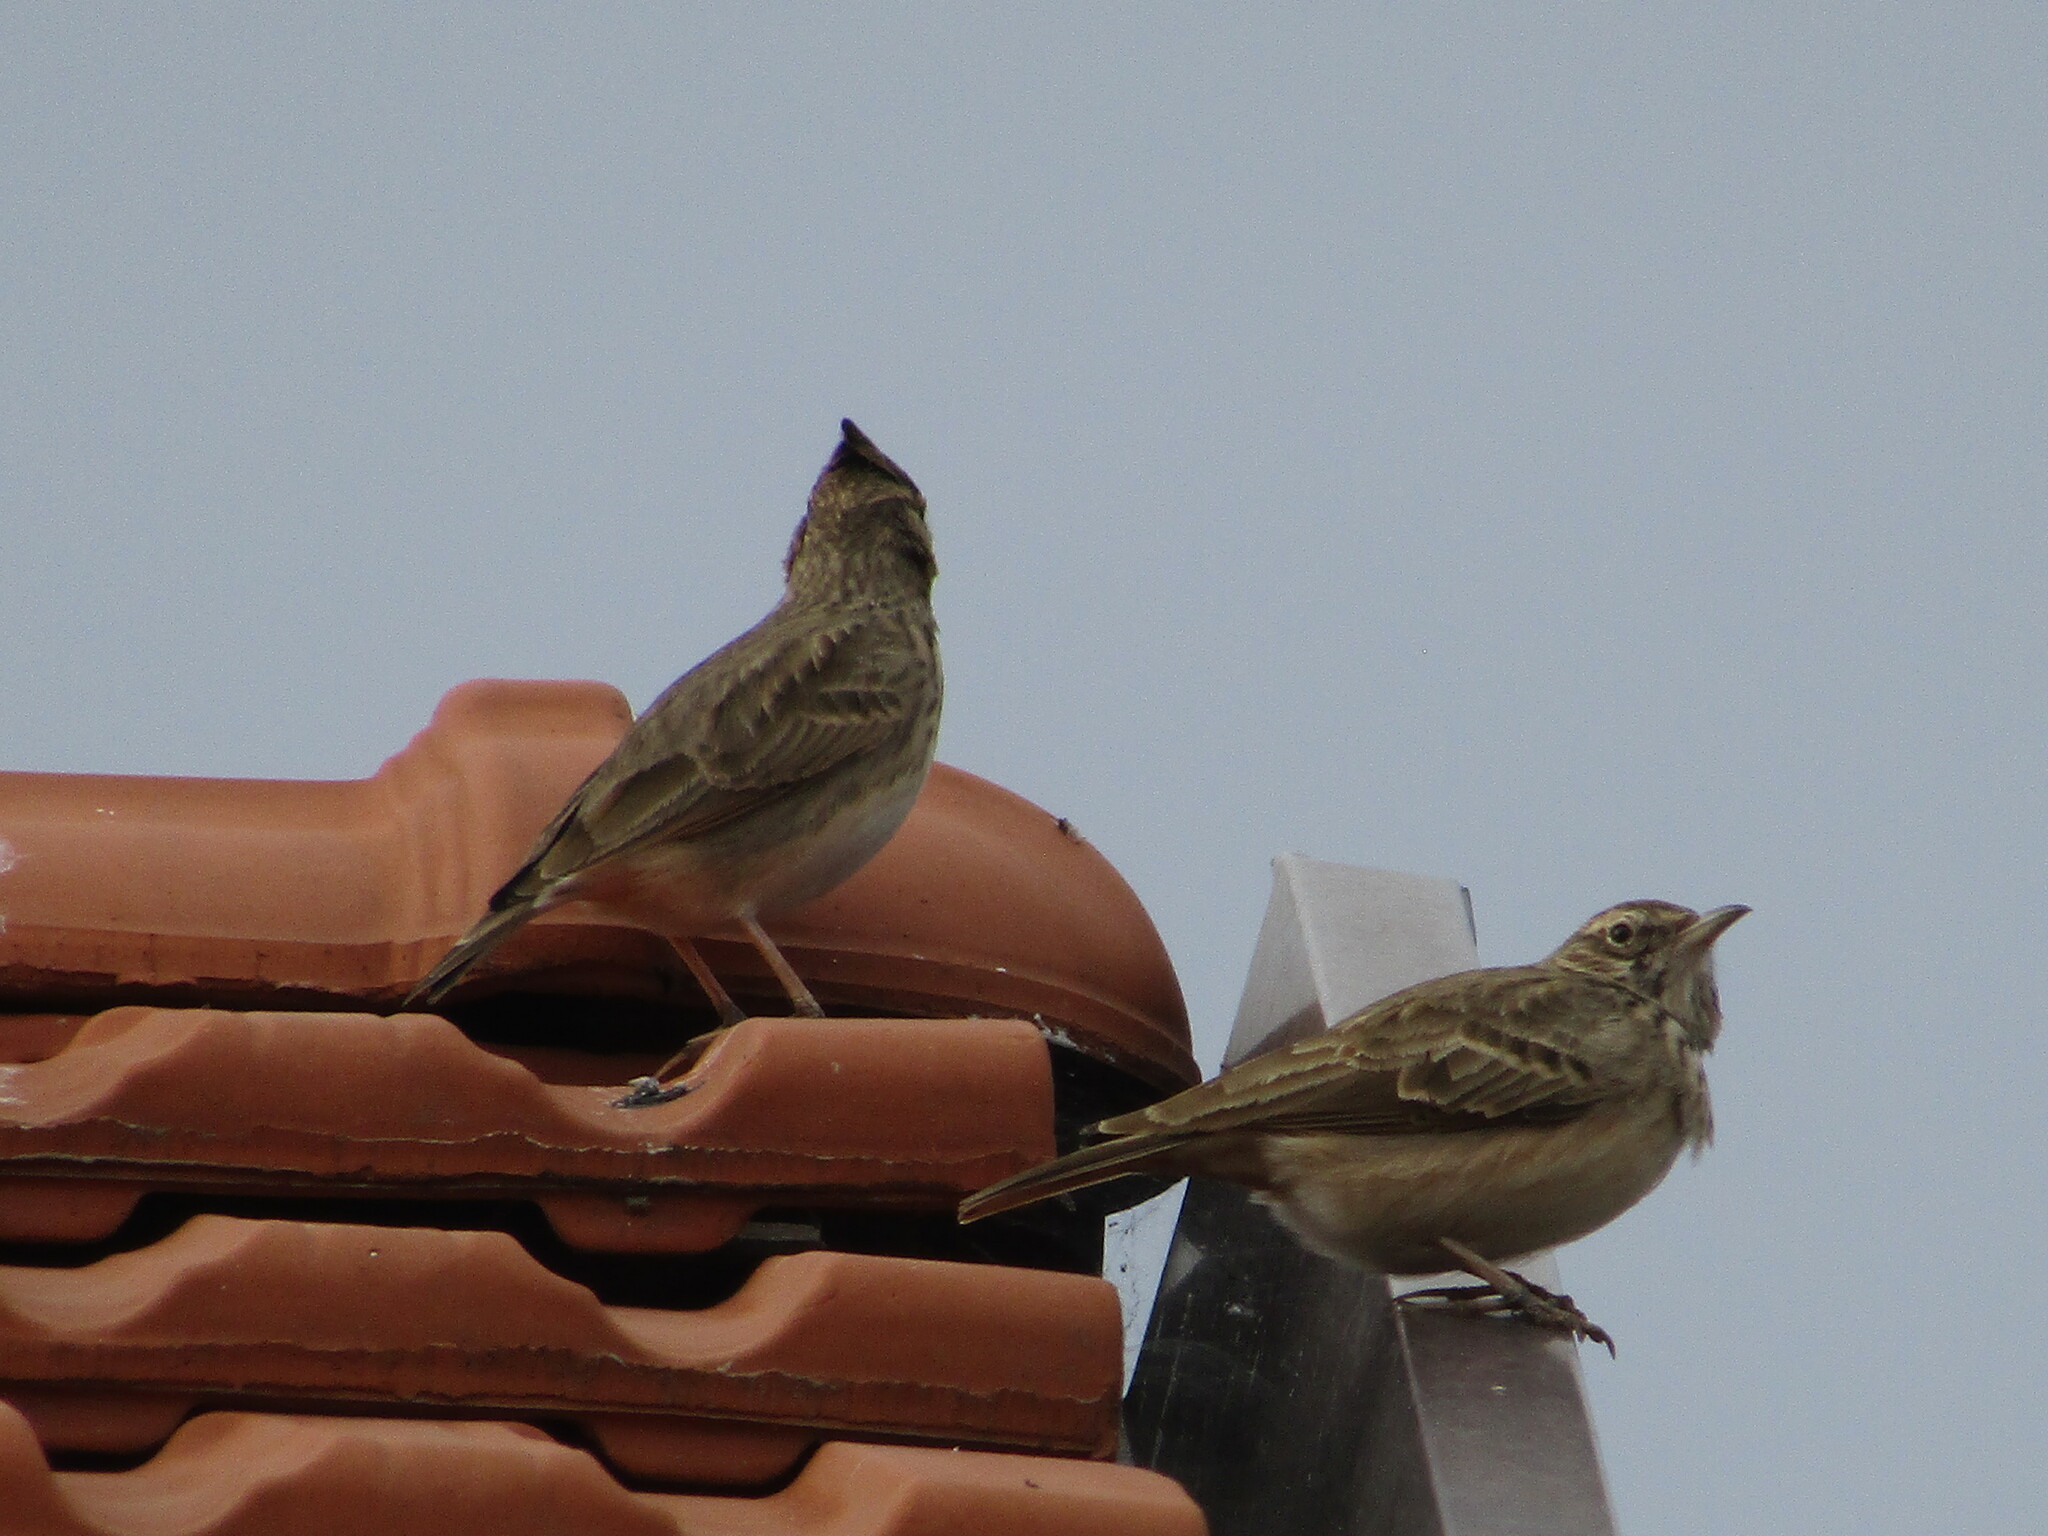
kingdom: Animalia
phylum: Chordata
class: Aves
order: Passeriformes
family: Alaudidae
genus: Galerida
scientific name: Galerida cristata
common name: Crested lark
